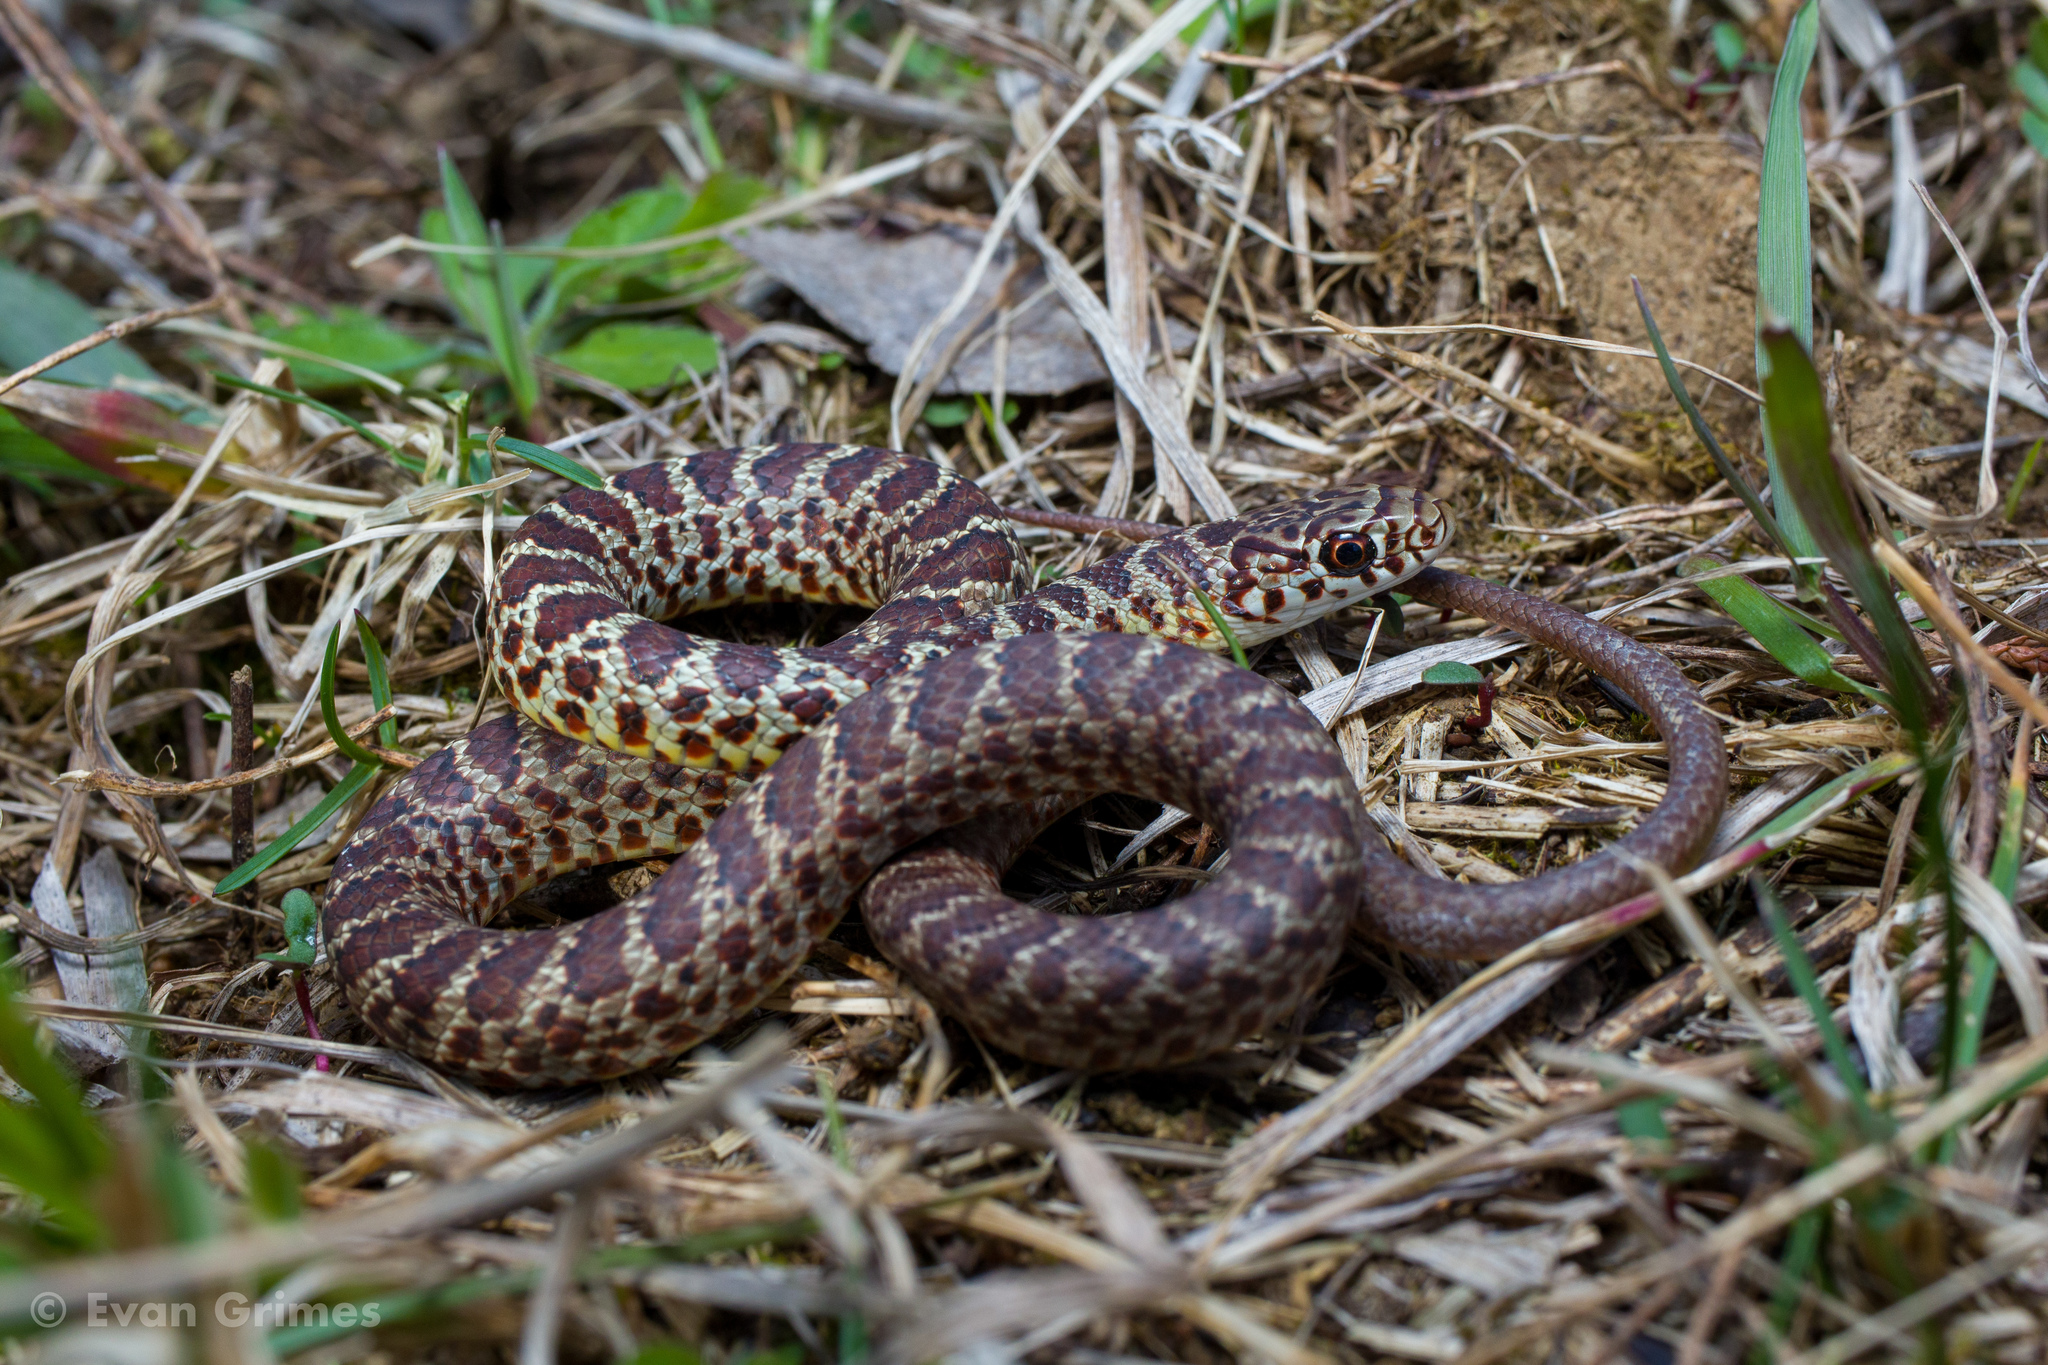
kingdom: Animalia
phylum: Chordata
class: Squamata
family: Colubridae
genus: Coluber
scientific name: Coluber constrictor
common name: Eastern racer
